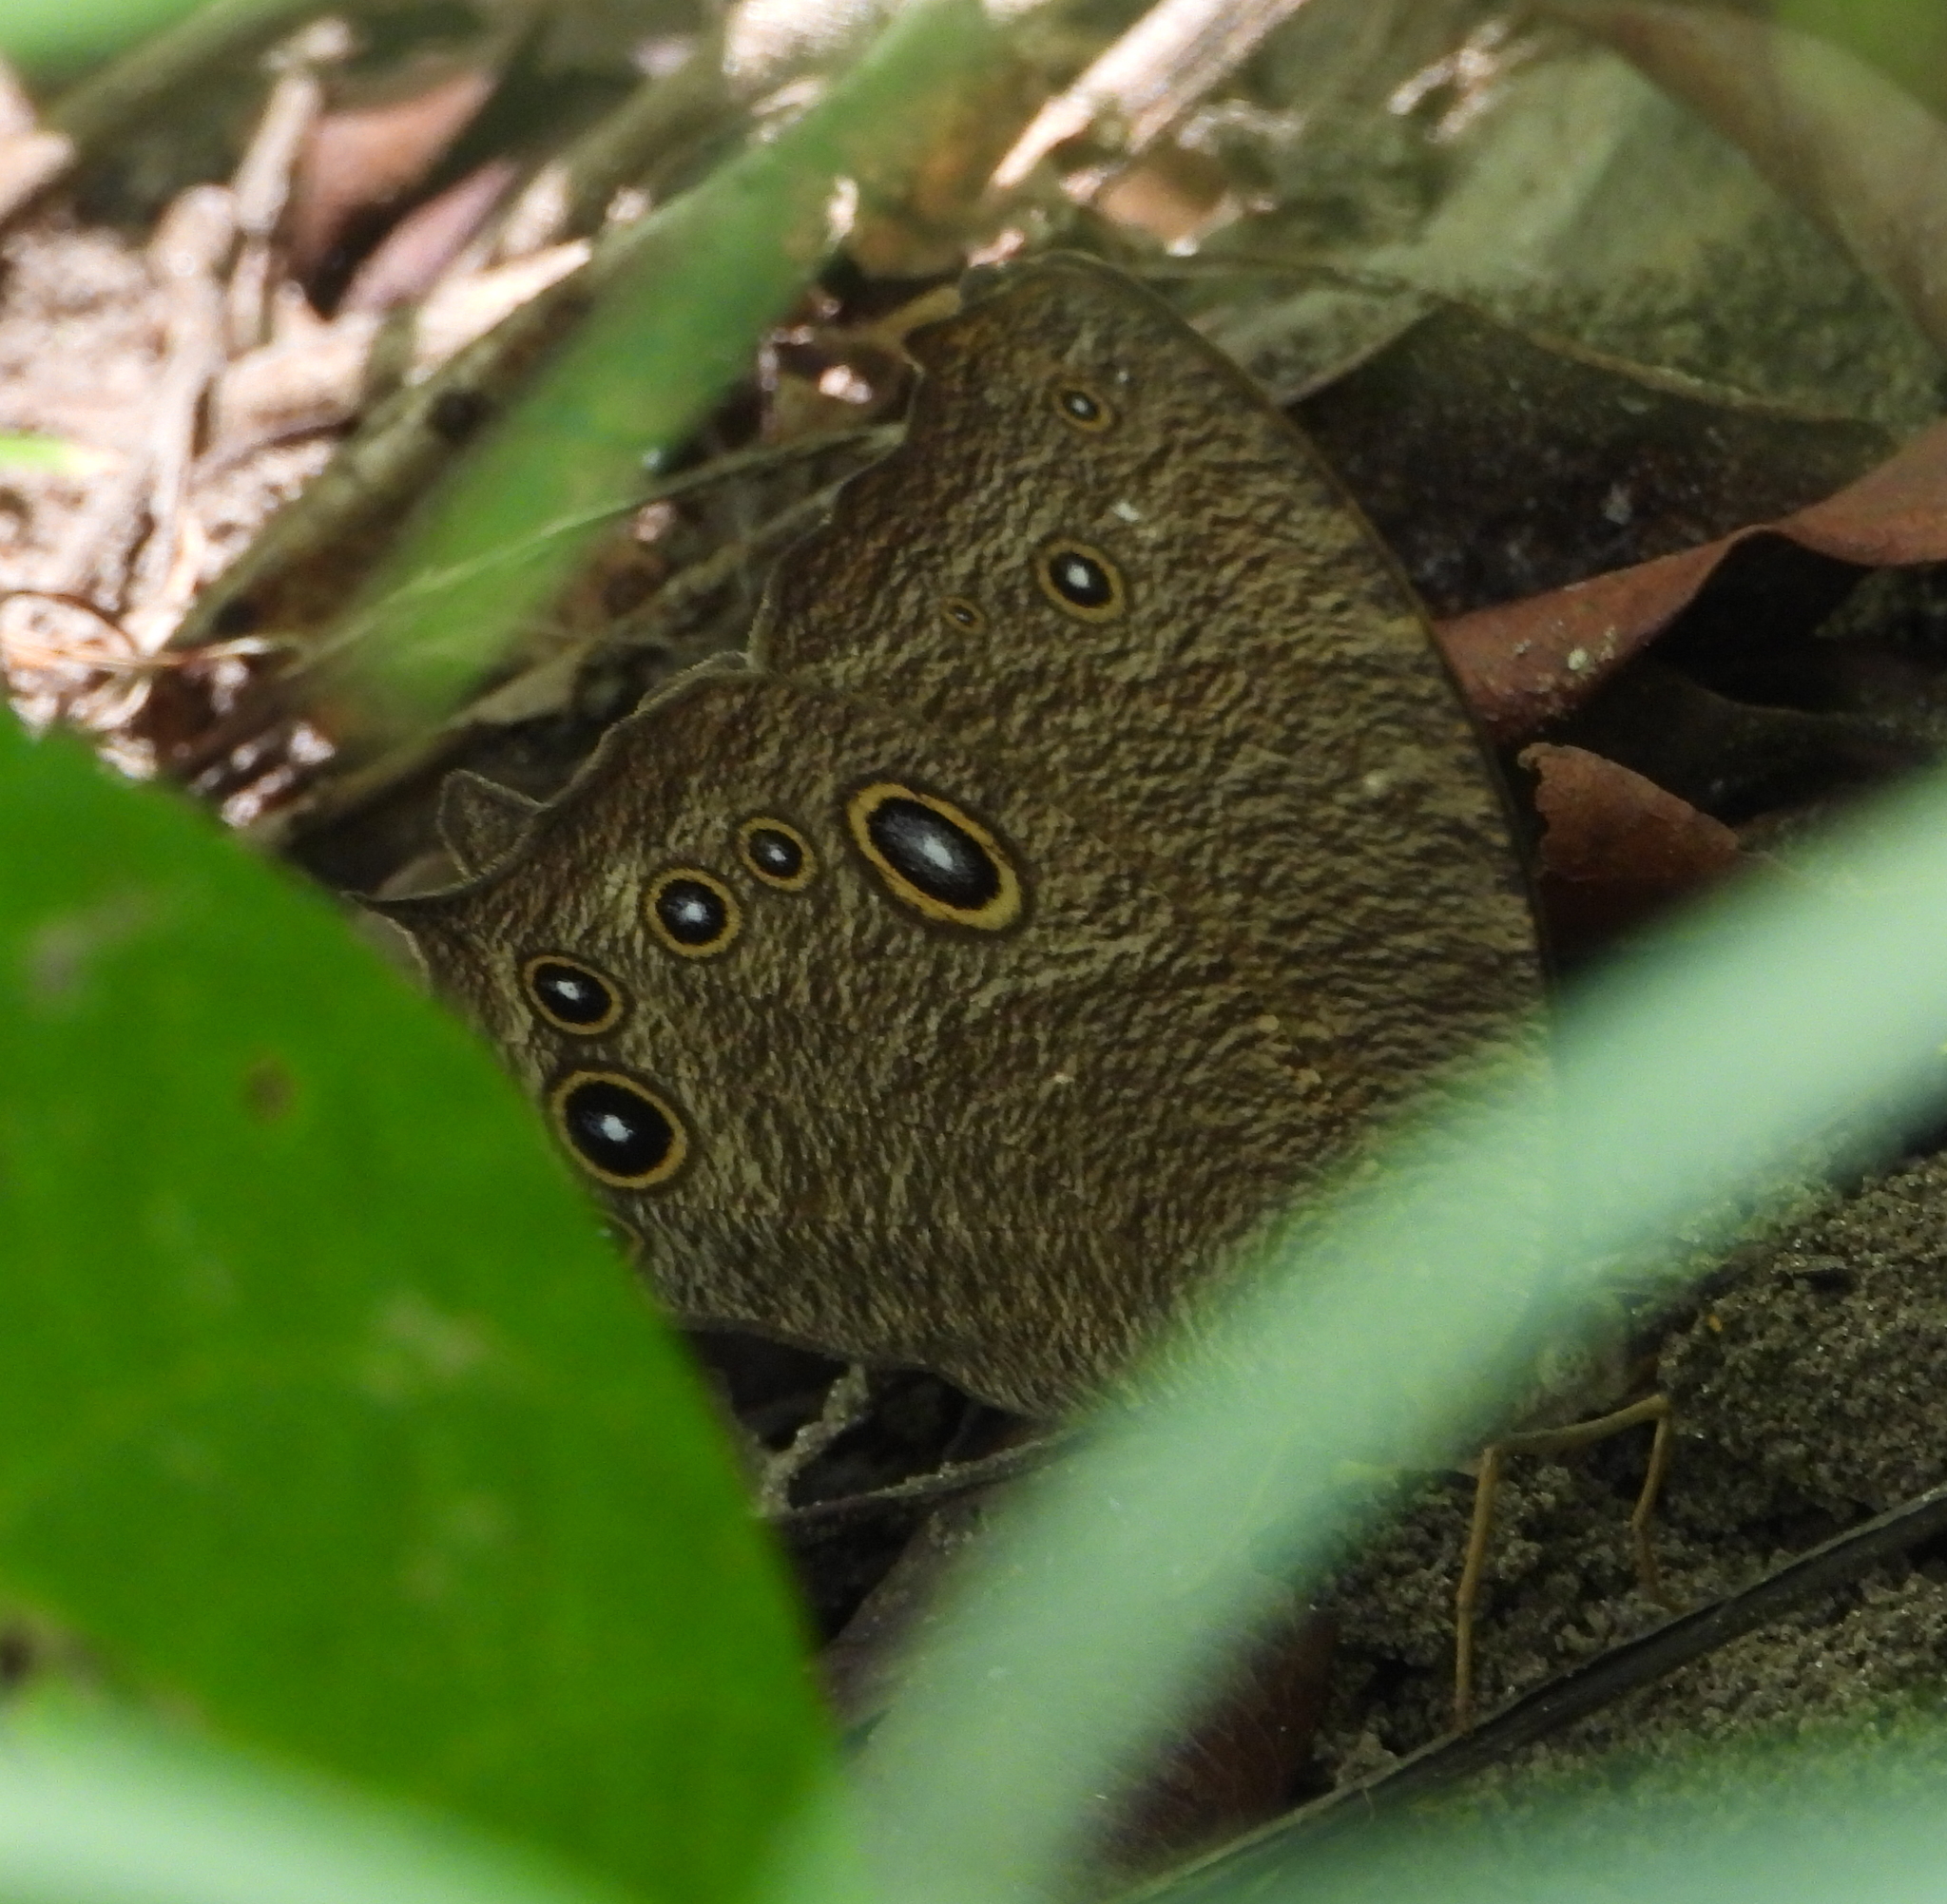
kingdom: Animalia
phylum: Arthropoda
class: Insecta
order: Lepidoptera
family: Nymphalidae
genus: Melanitis
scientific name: Melanitis leda
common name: Twilight brown
